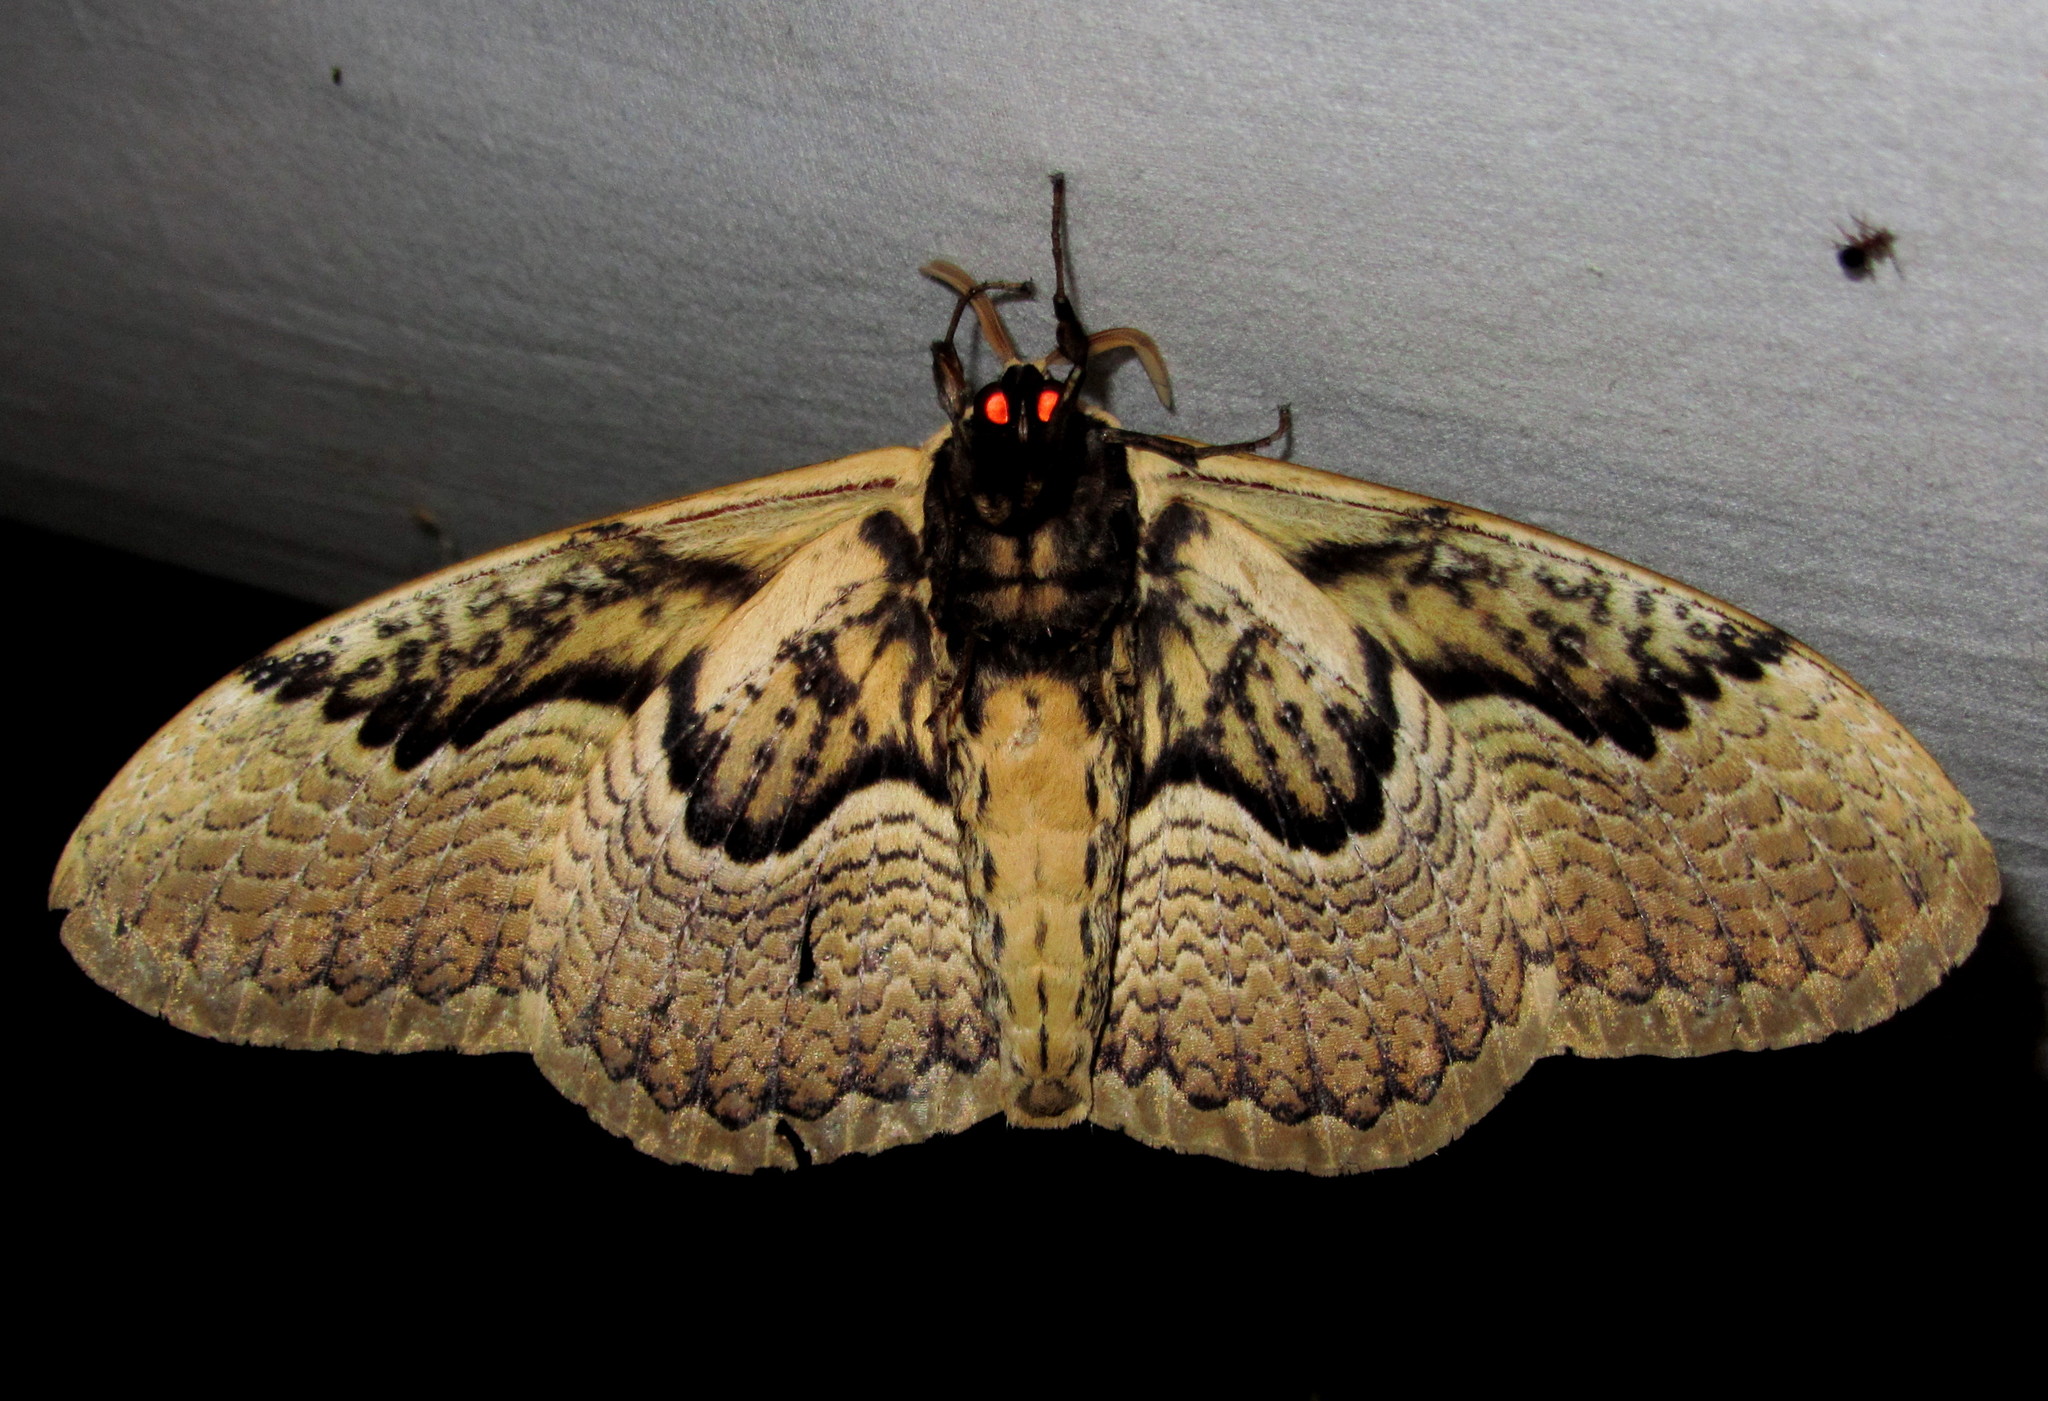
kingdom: Animalia
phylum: Arthropoda
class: Insecta
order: Lepidoptera
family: Brahmaeidae
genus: Brahmaea
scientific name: Brahmaea hearseyi
